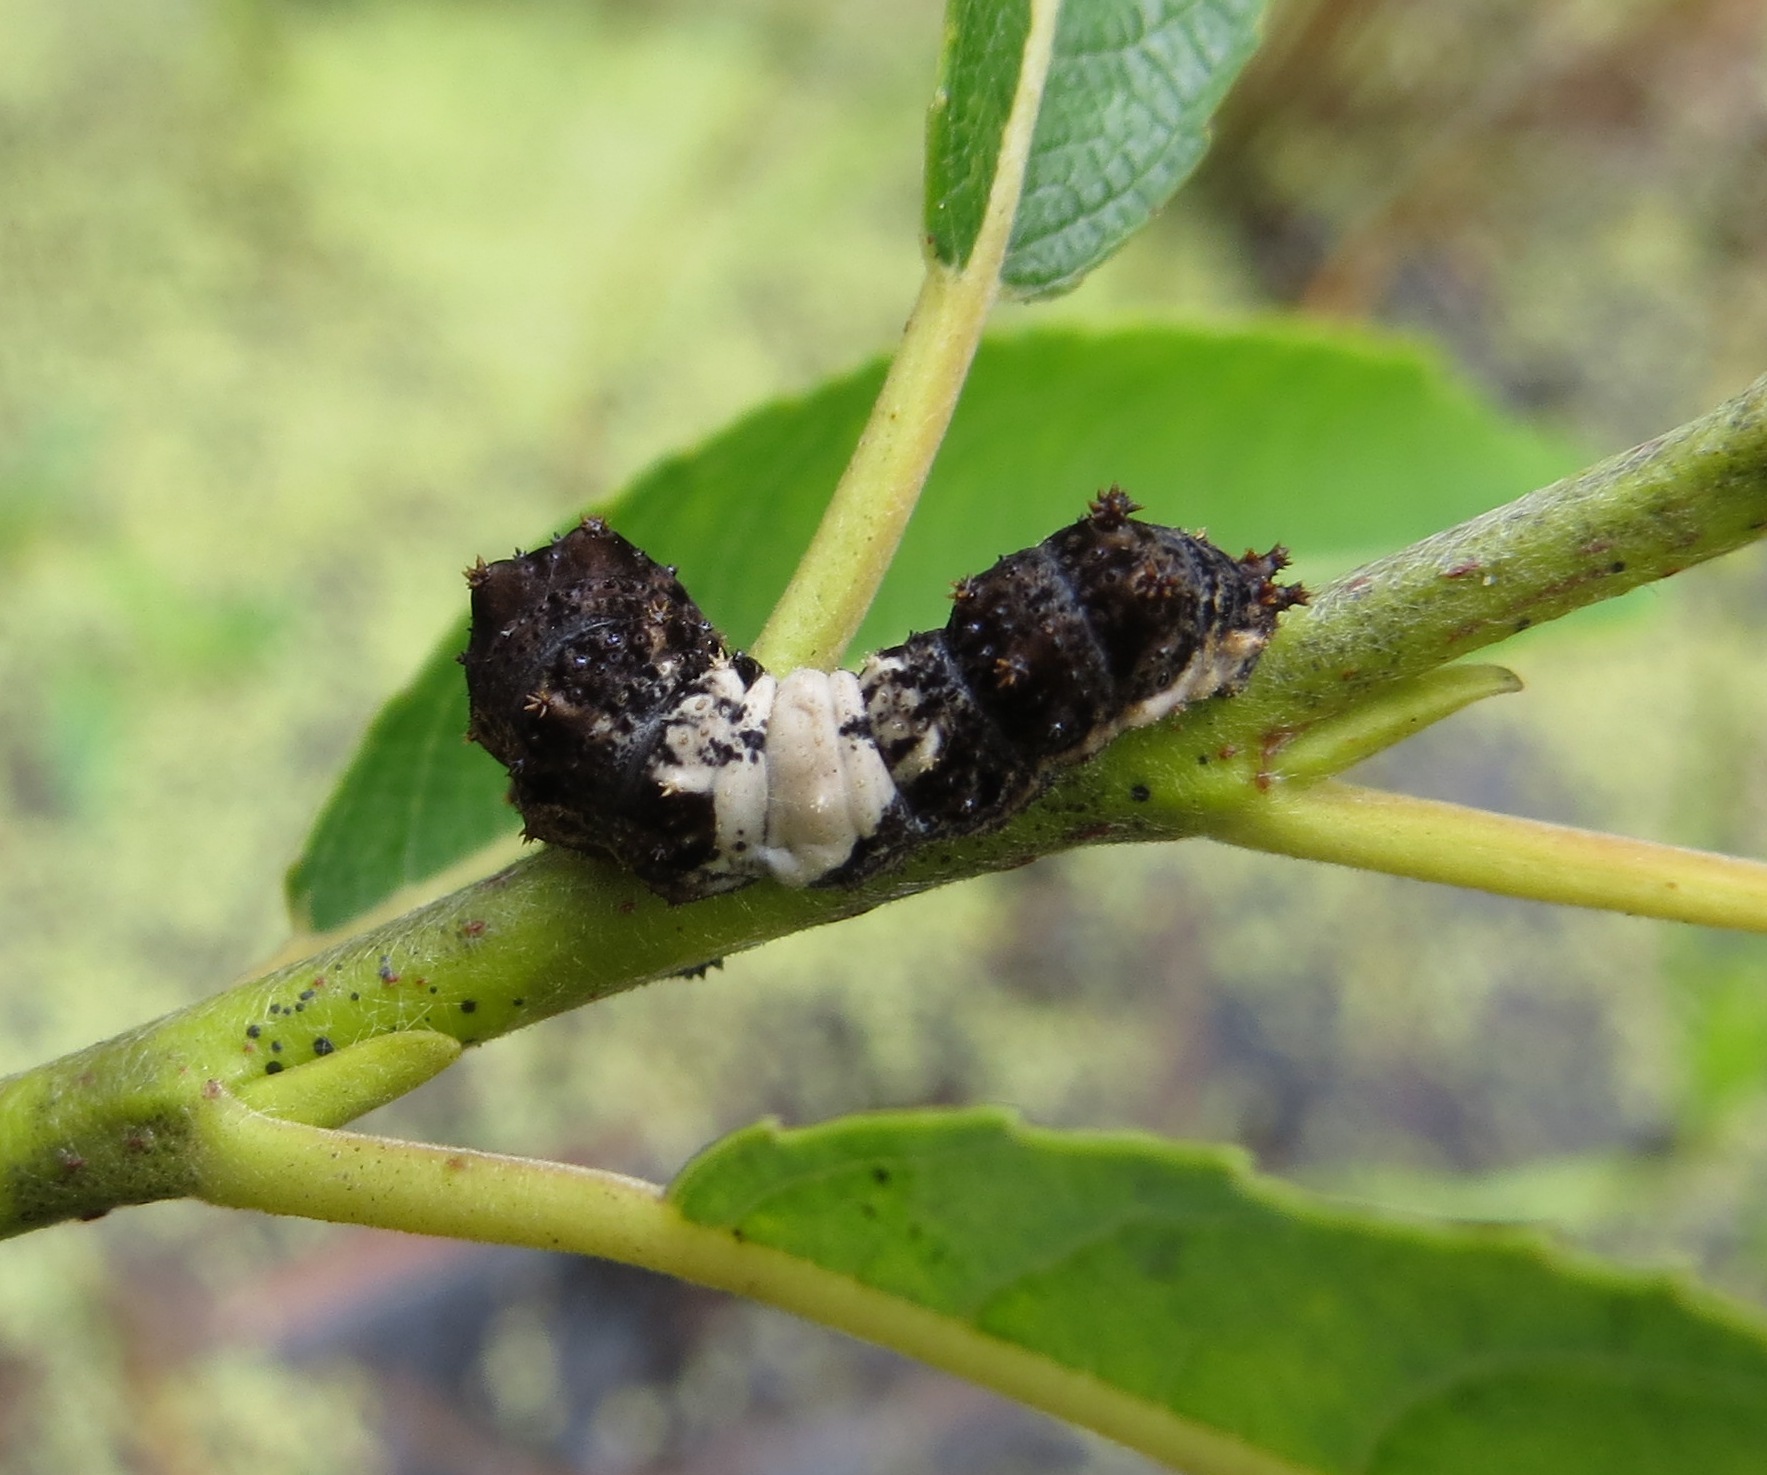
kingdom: Animalia
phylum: Arthropoda
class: Insecta
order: Lepidoptera
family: Nymphalidae
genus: Limenitis
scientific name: Limenitis archippus
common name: Viceroy
